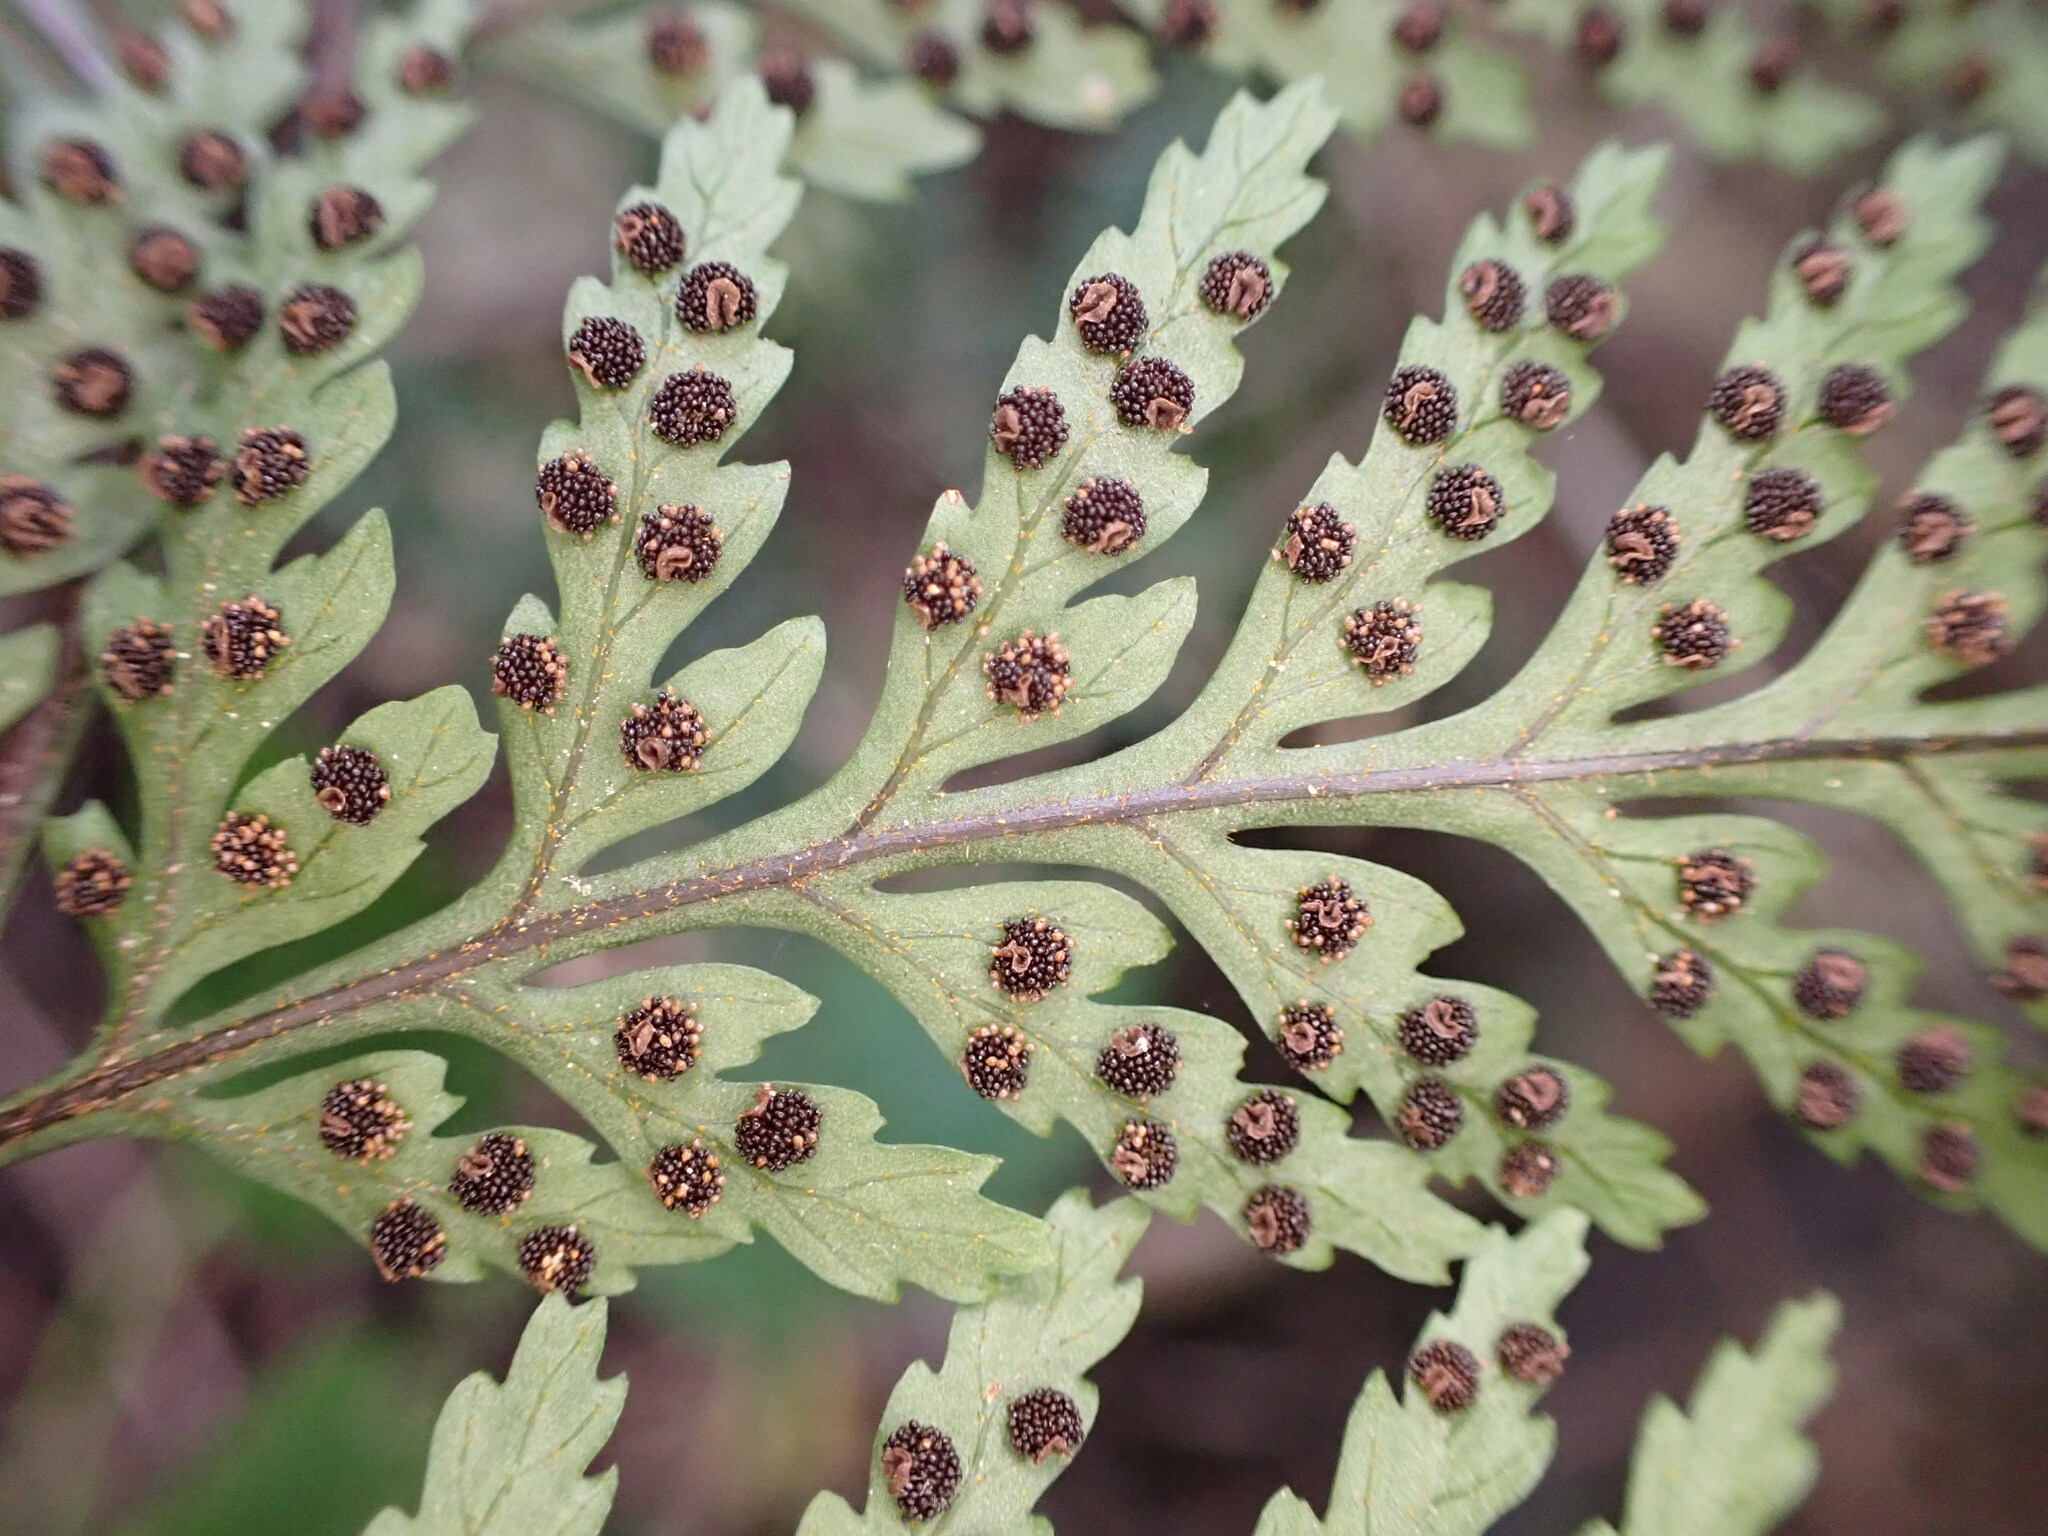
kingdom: Plantae
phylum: Tracheophyta
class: Polypodiopsida
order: Polypodiales
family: Dryopteridaceae
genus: Parapolystichum
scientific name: Parapolystichum glabellum
